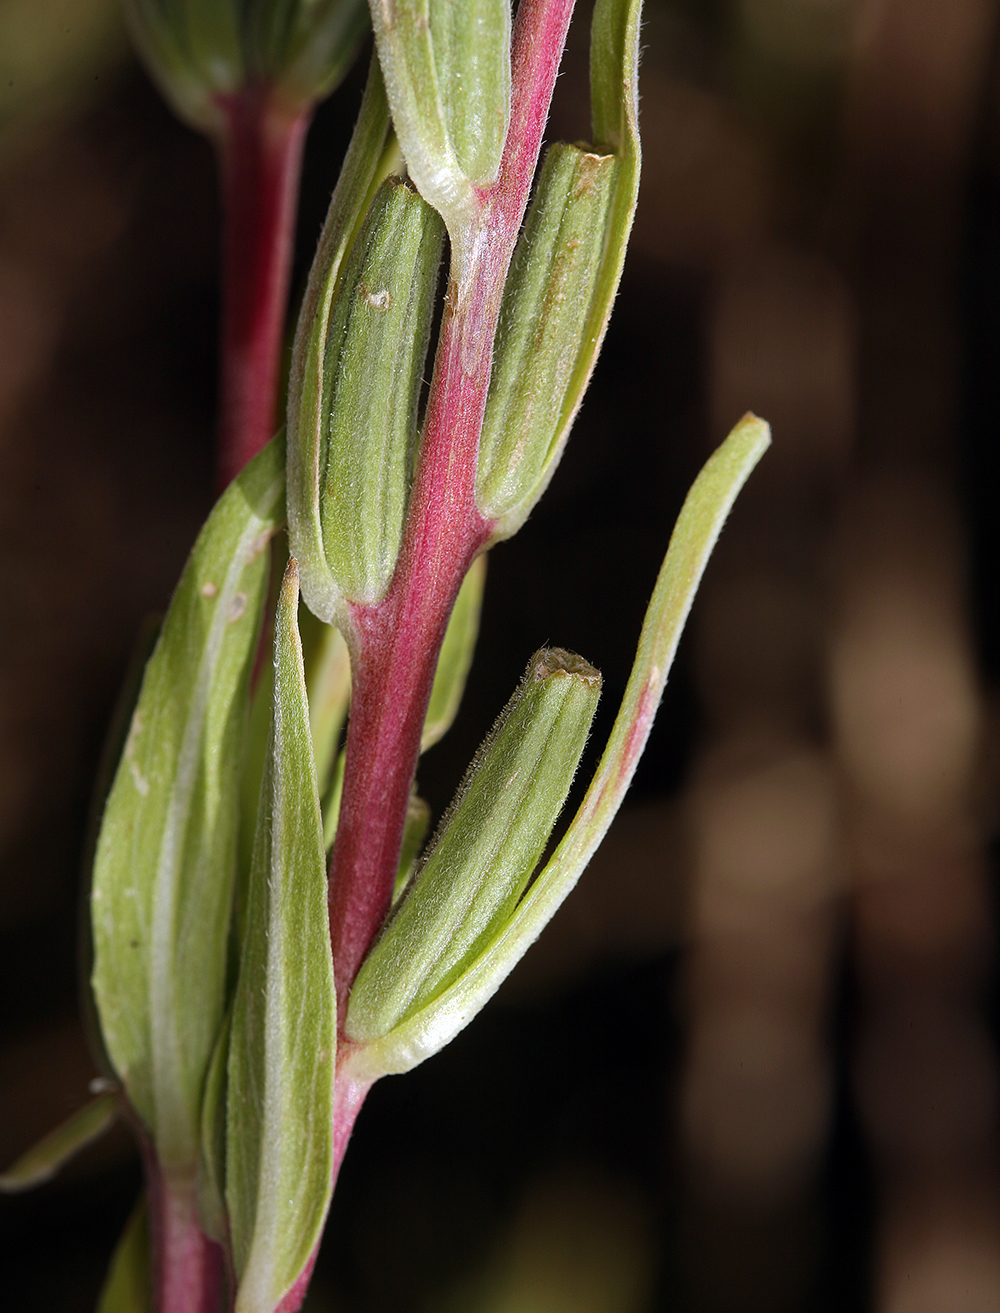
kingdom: Plantae
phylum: Tracheophyta
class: Magnoliopsida
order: Myrtales
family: Onagraceae
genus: Oenothera
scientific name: Oenothera elata
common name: Hooker's evening-primrose
